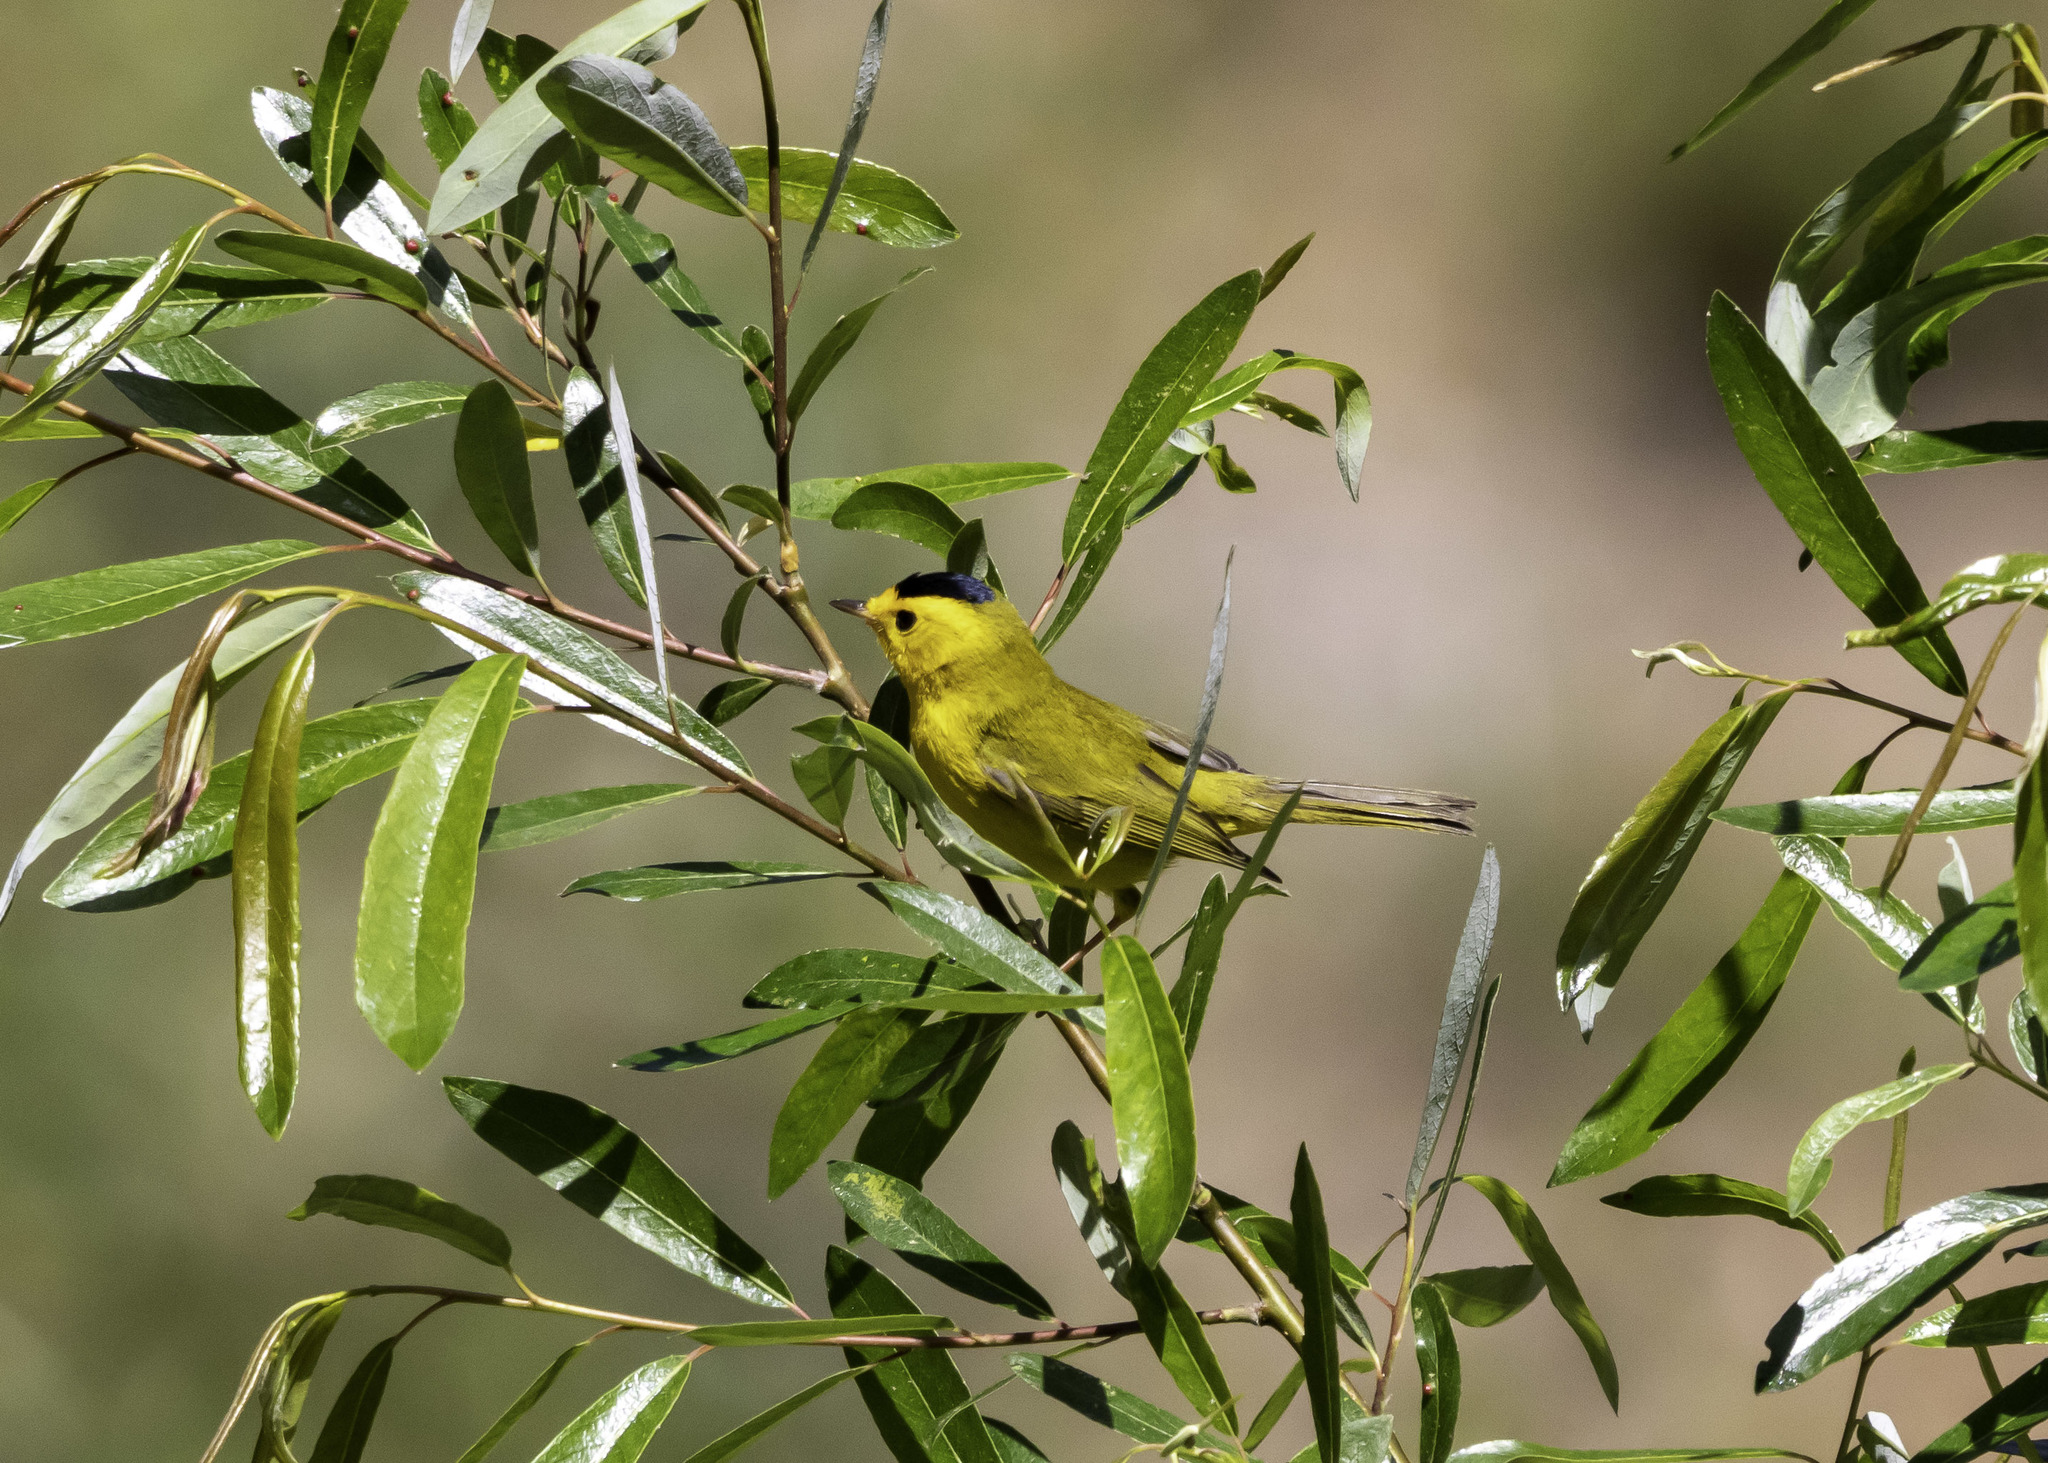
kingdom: Animalia
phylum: Chordata
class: Aves
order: Passeriformes
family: Parulidae
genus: Cardellina
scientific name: Cardellina pusilla
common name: Wilson's warbler
